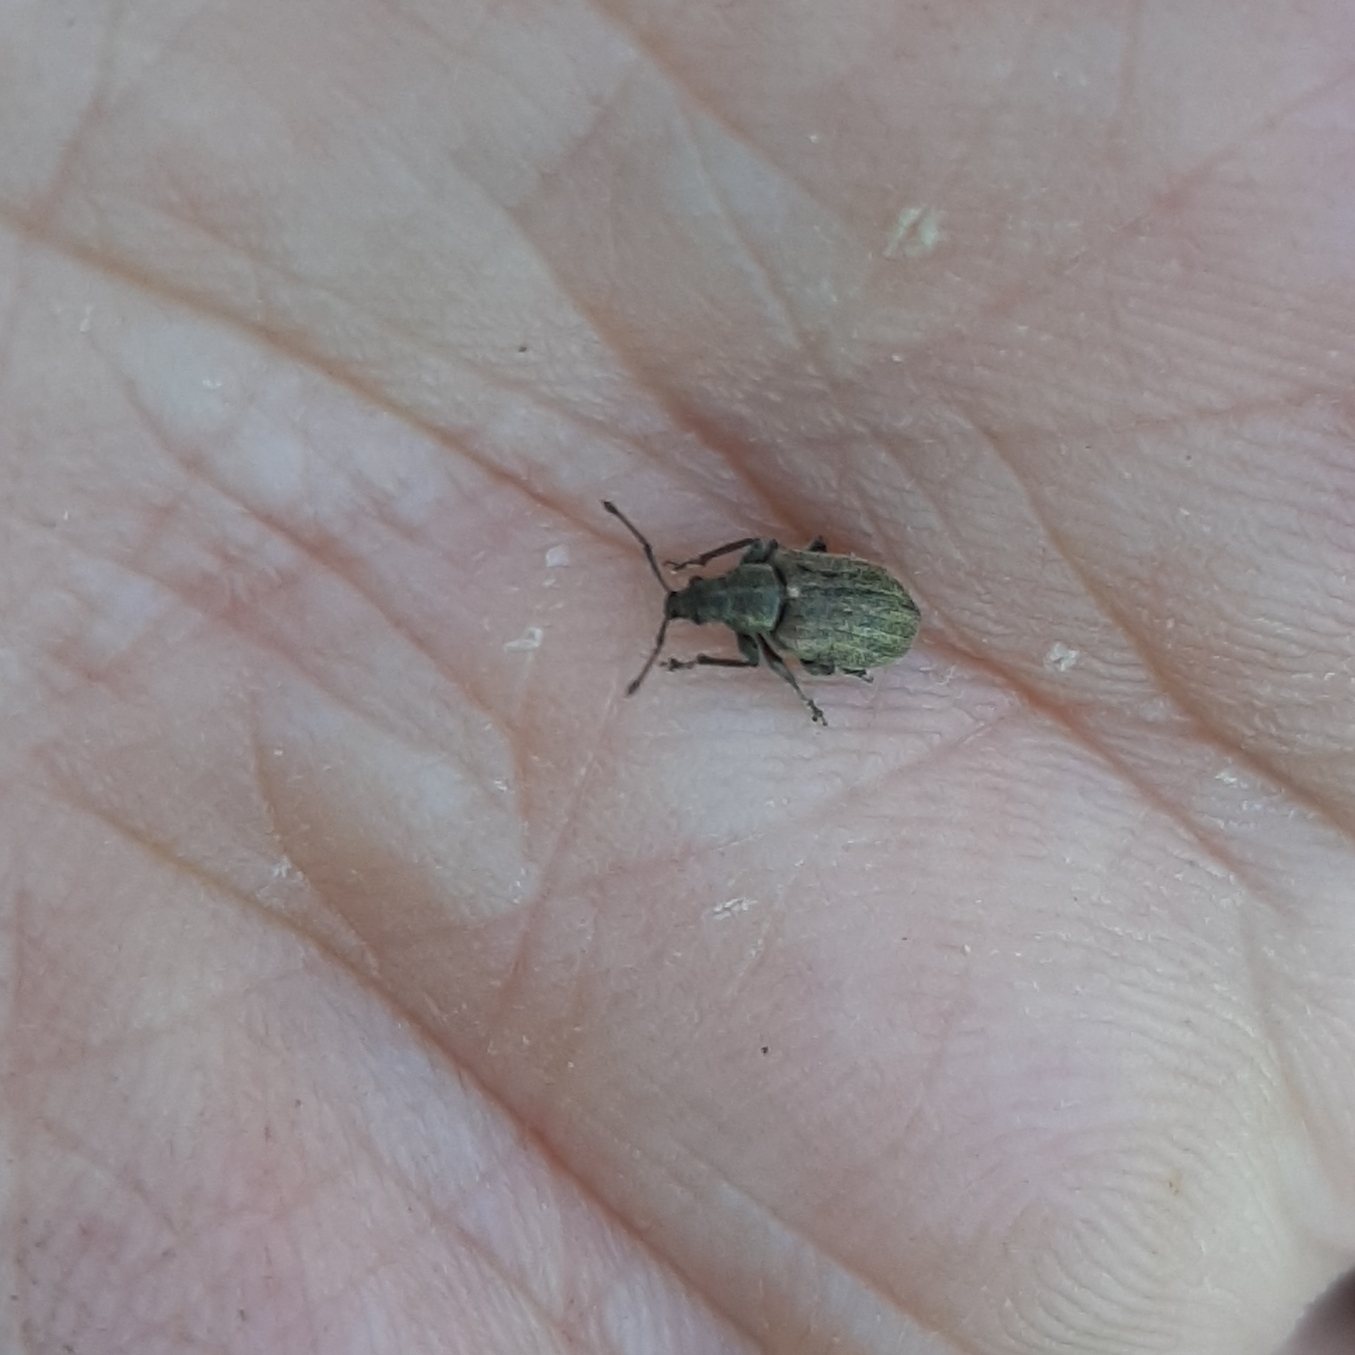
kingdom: Animalia
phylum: Arthropoda
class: Insecta
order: Coleoptera
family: Curculionidae
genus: Phyllobius
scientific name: Phyllobius pyri
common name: Common leaf weevil
